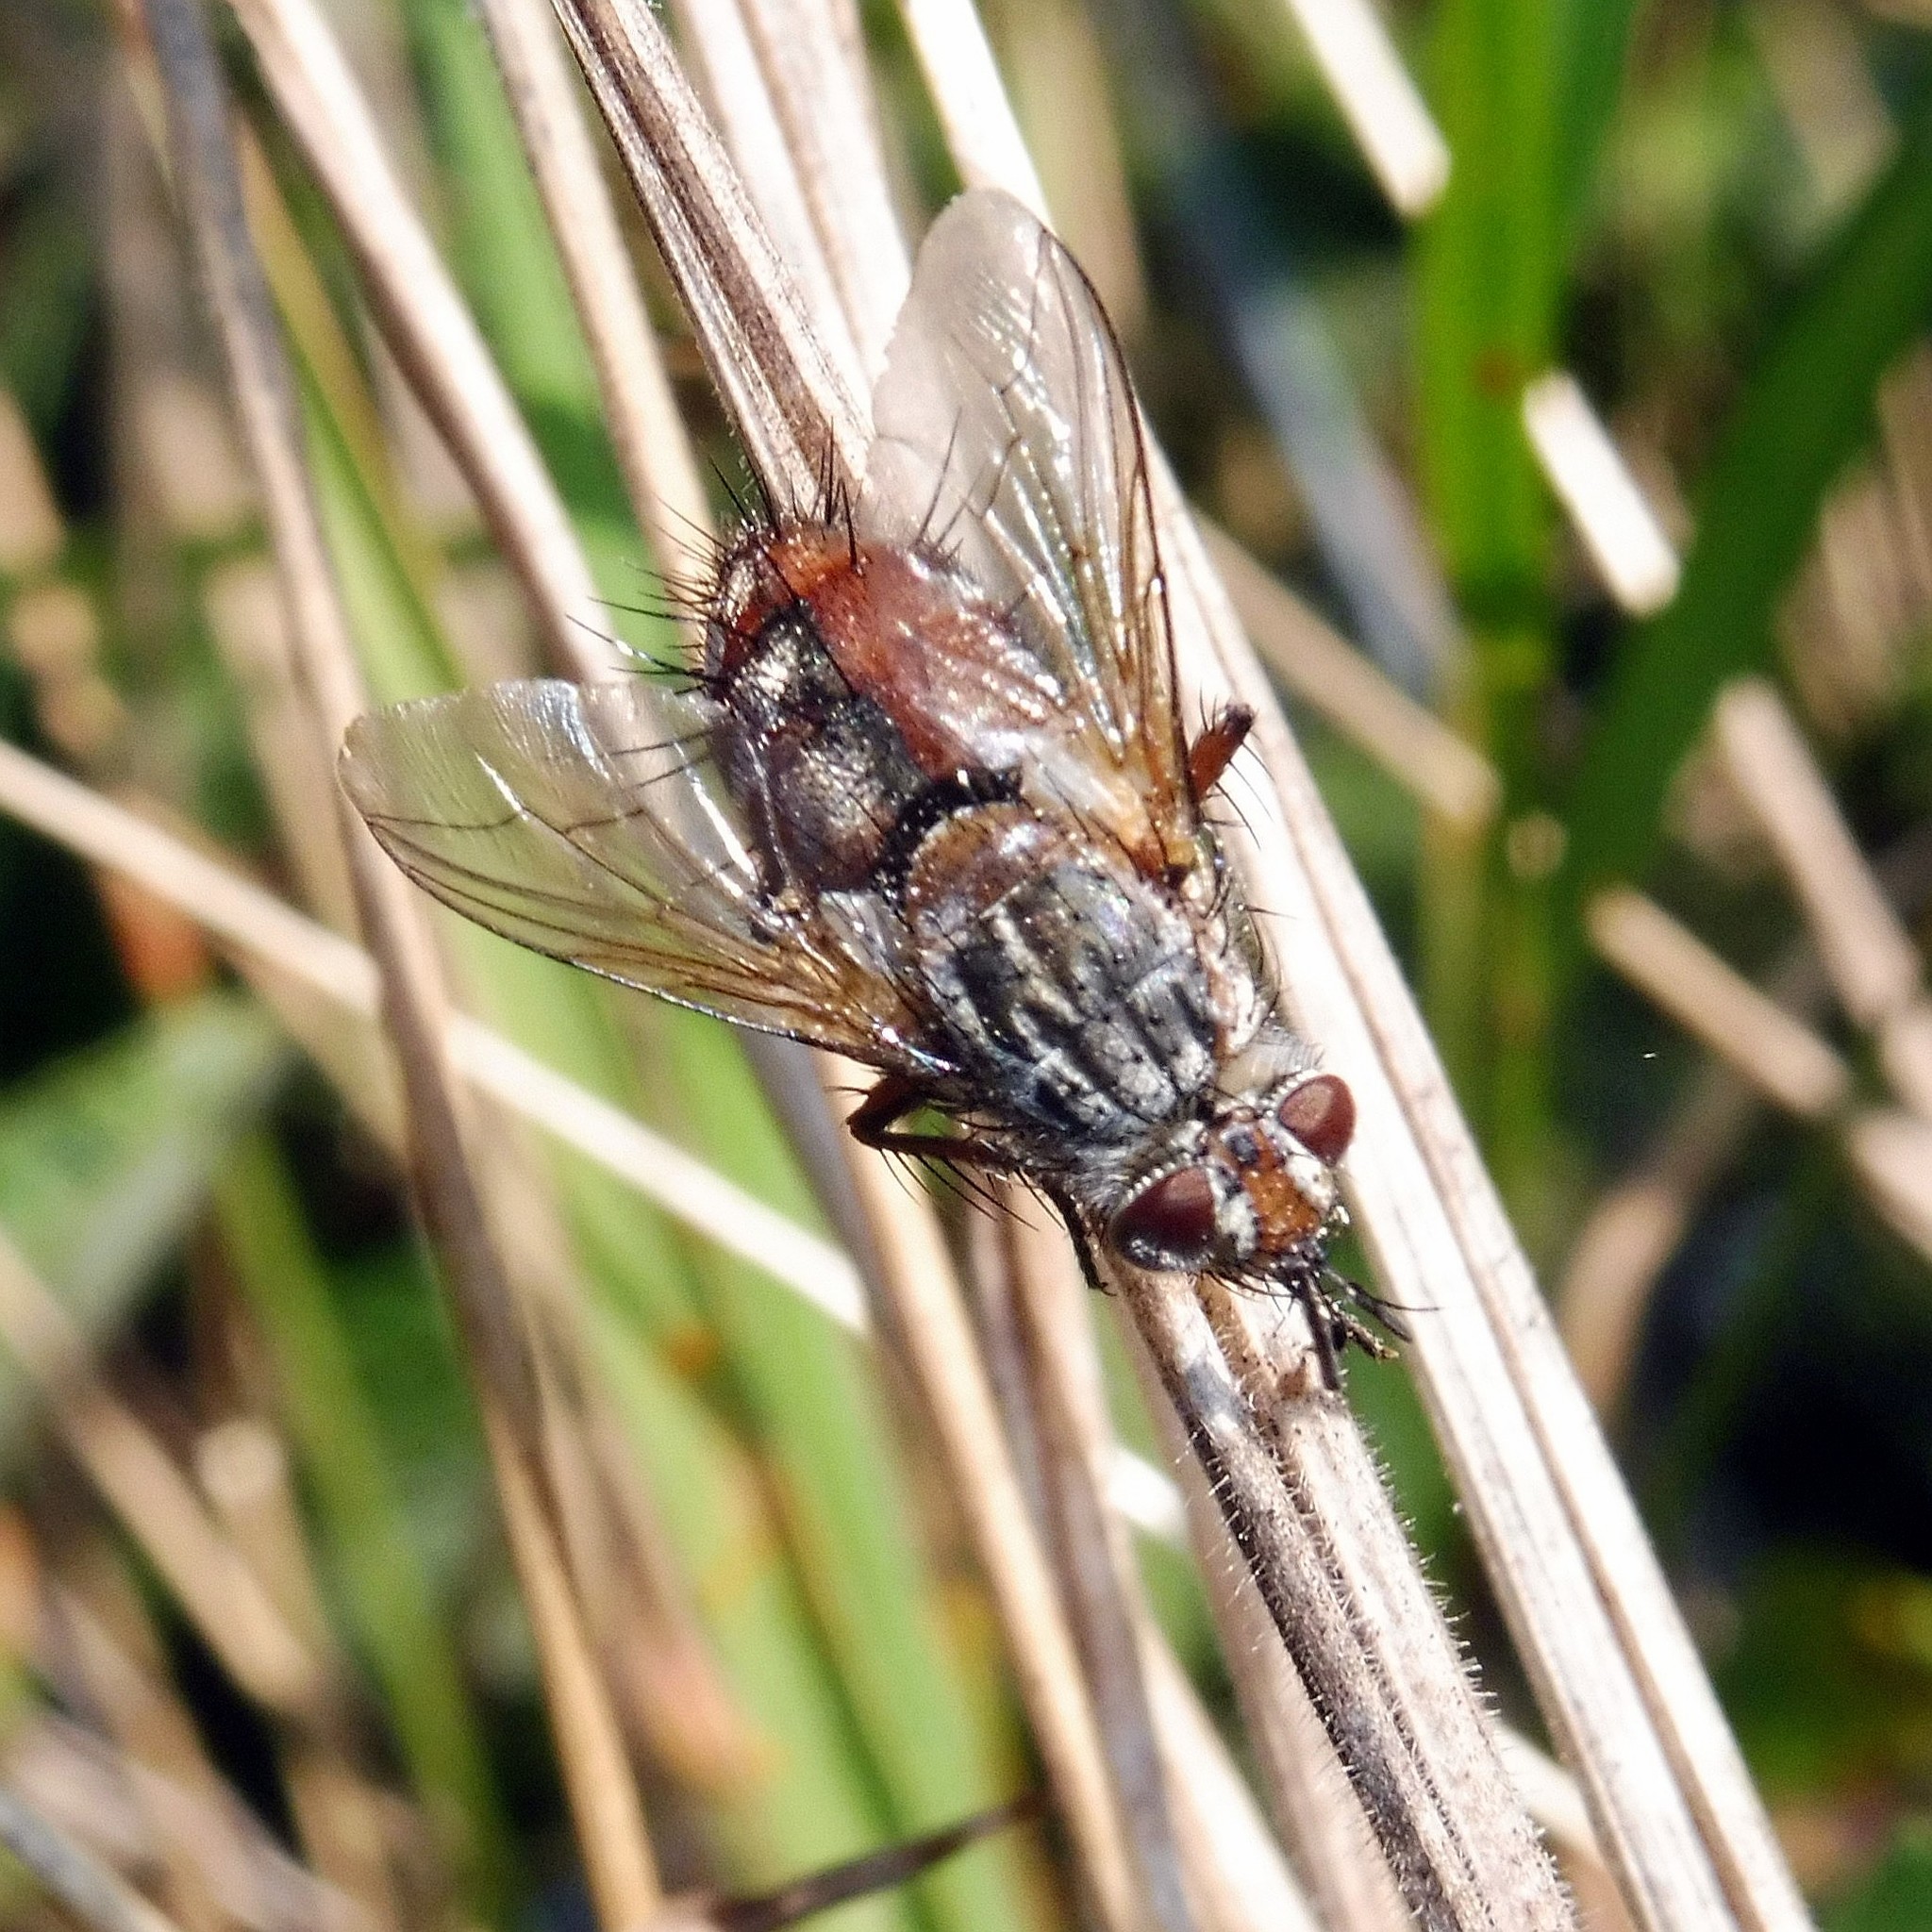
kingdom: Animalia
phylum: Arthropoda
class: Insecta
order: Diptera
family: Tachinidae
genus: Linnaemya
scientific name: Linnaemya vulpina
